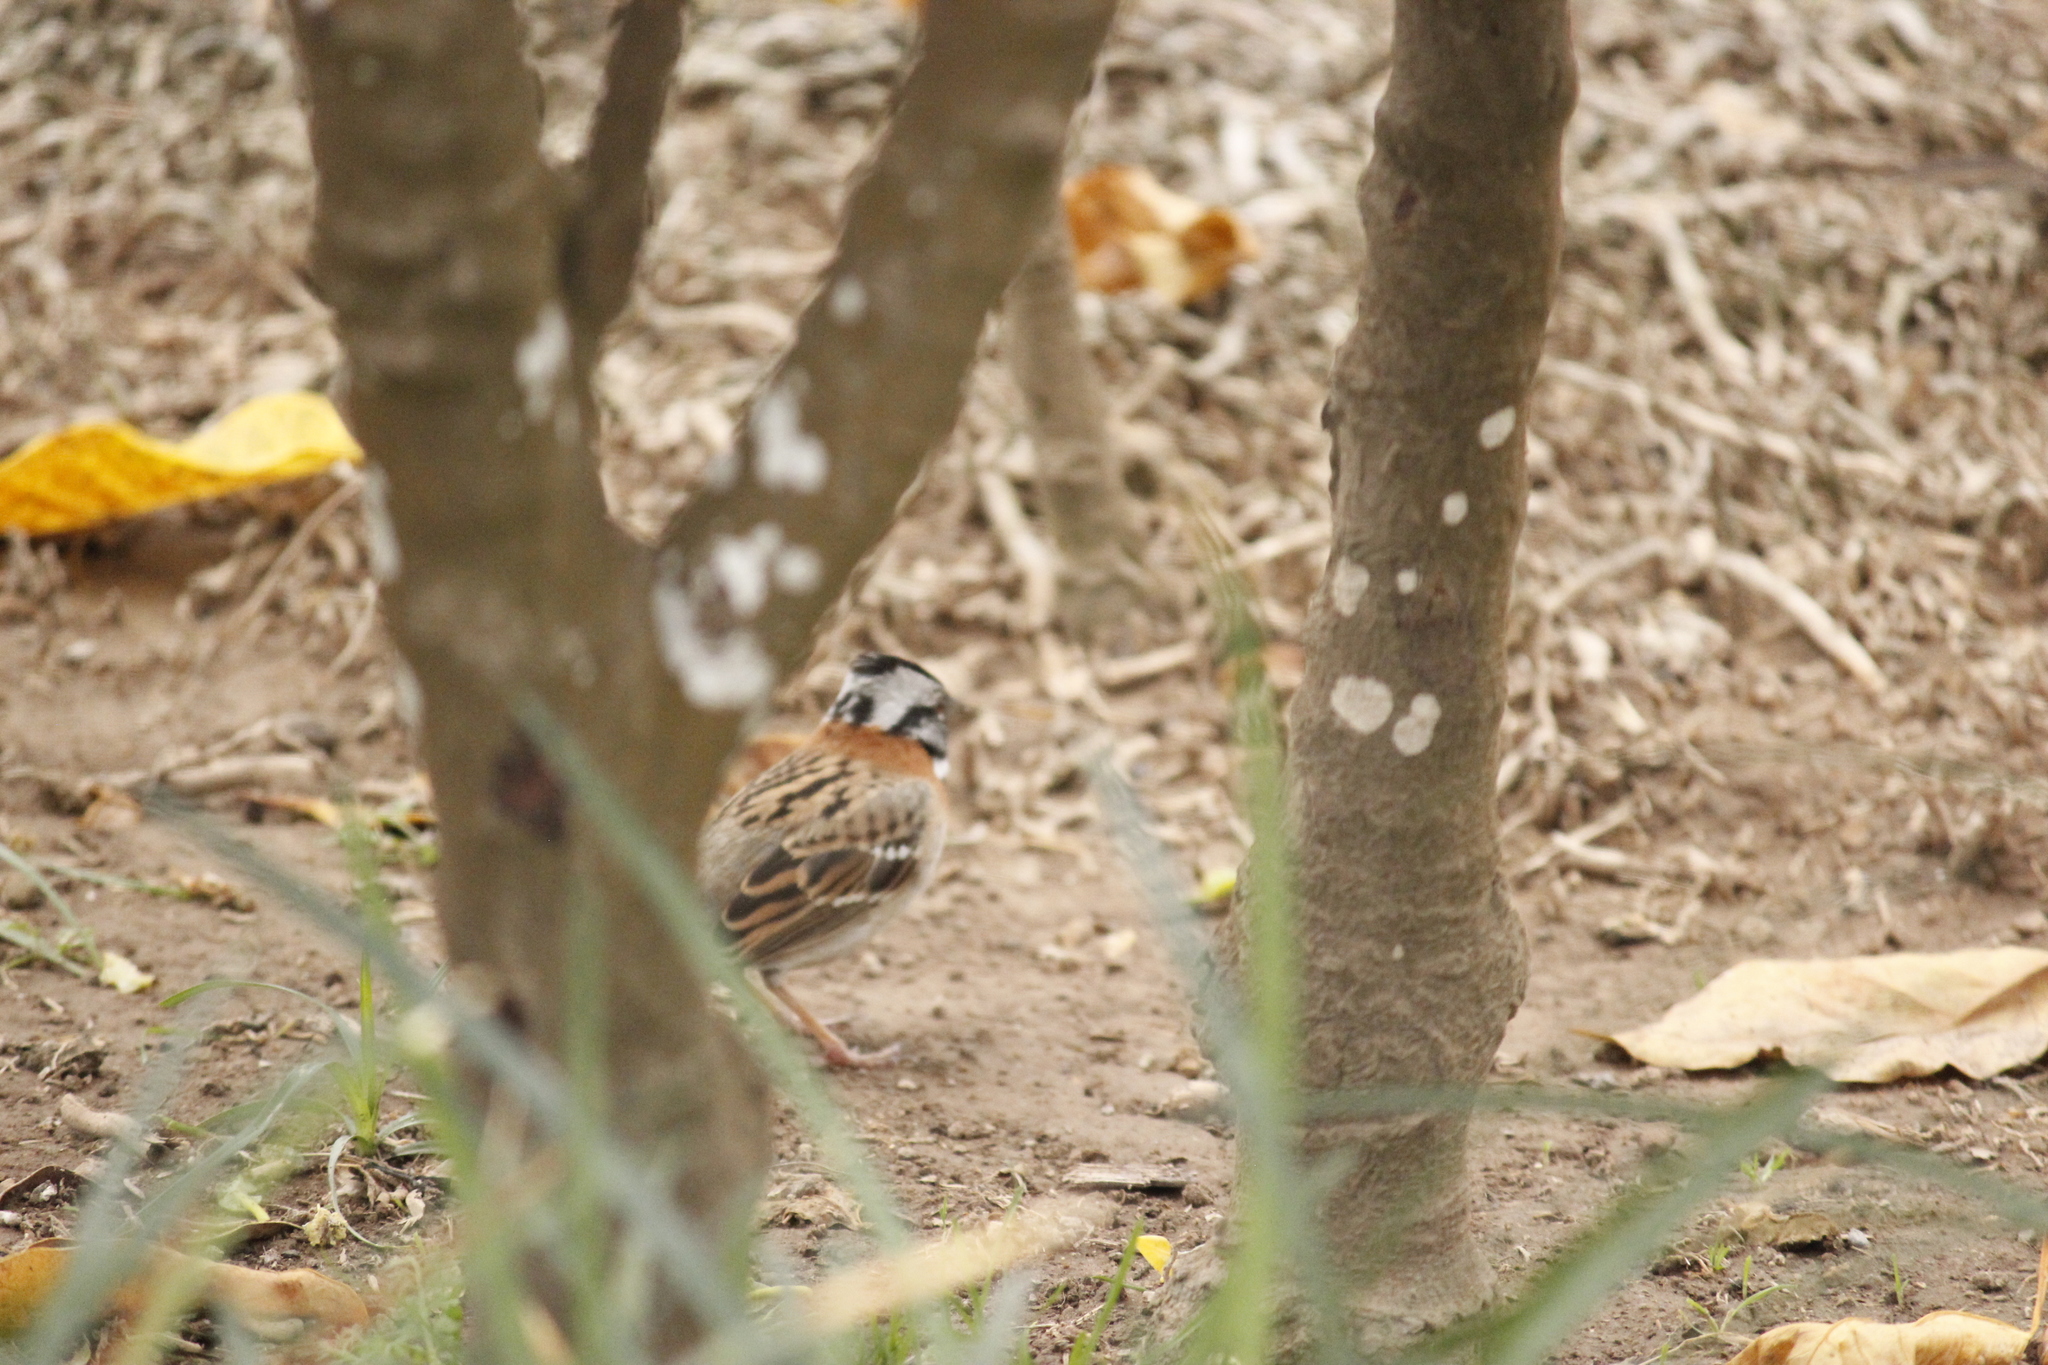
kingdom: Animalia
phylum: Chordata
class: Aves
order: Passeriformes
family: Passerellidae
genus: Zonotrichia
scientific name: Zonotrichia capensis
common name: Rufous-collared sparrow
